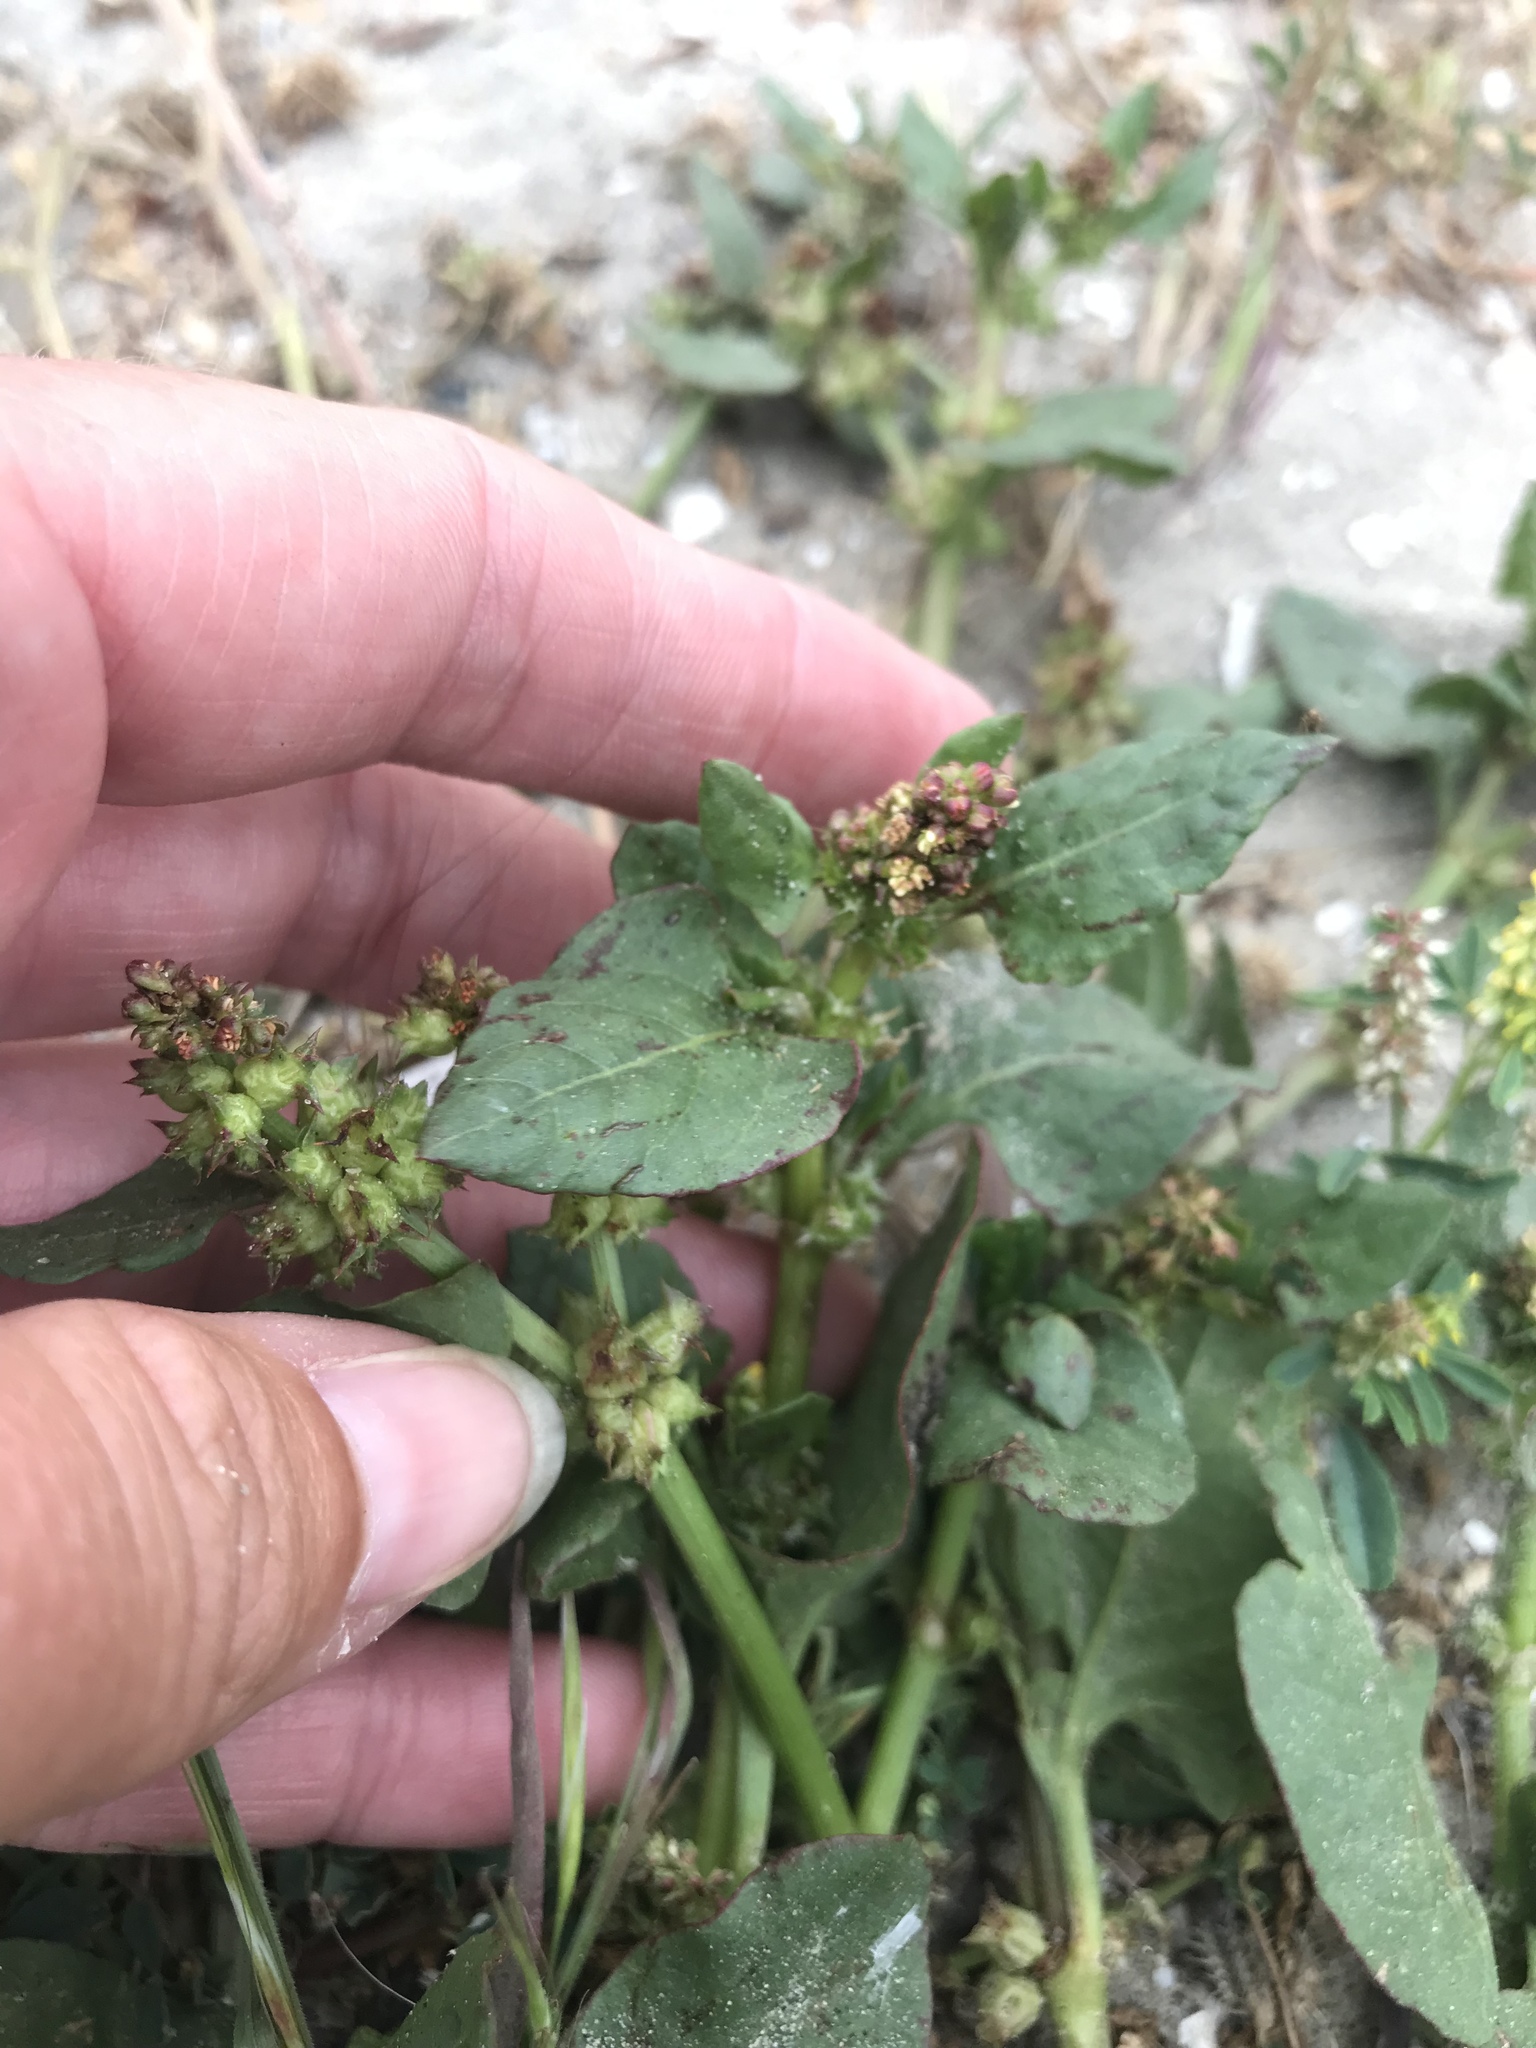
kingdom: Plantae
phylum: Tracheophyta
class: Magnoliopsida
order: Caryophyllales
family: Polygonaceae
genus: Rumex
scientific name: Rumex spinosus
